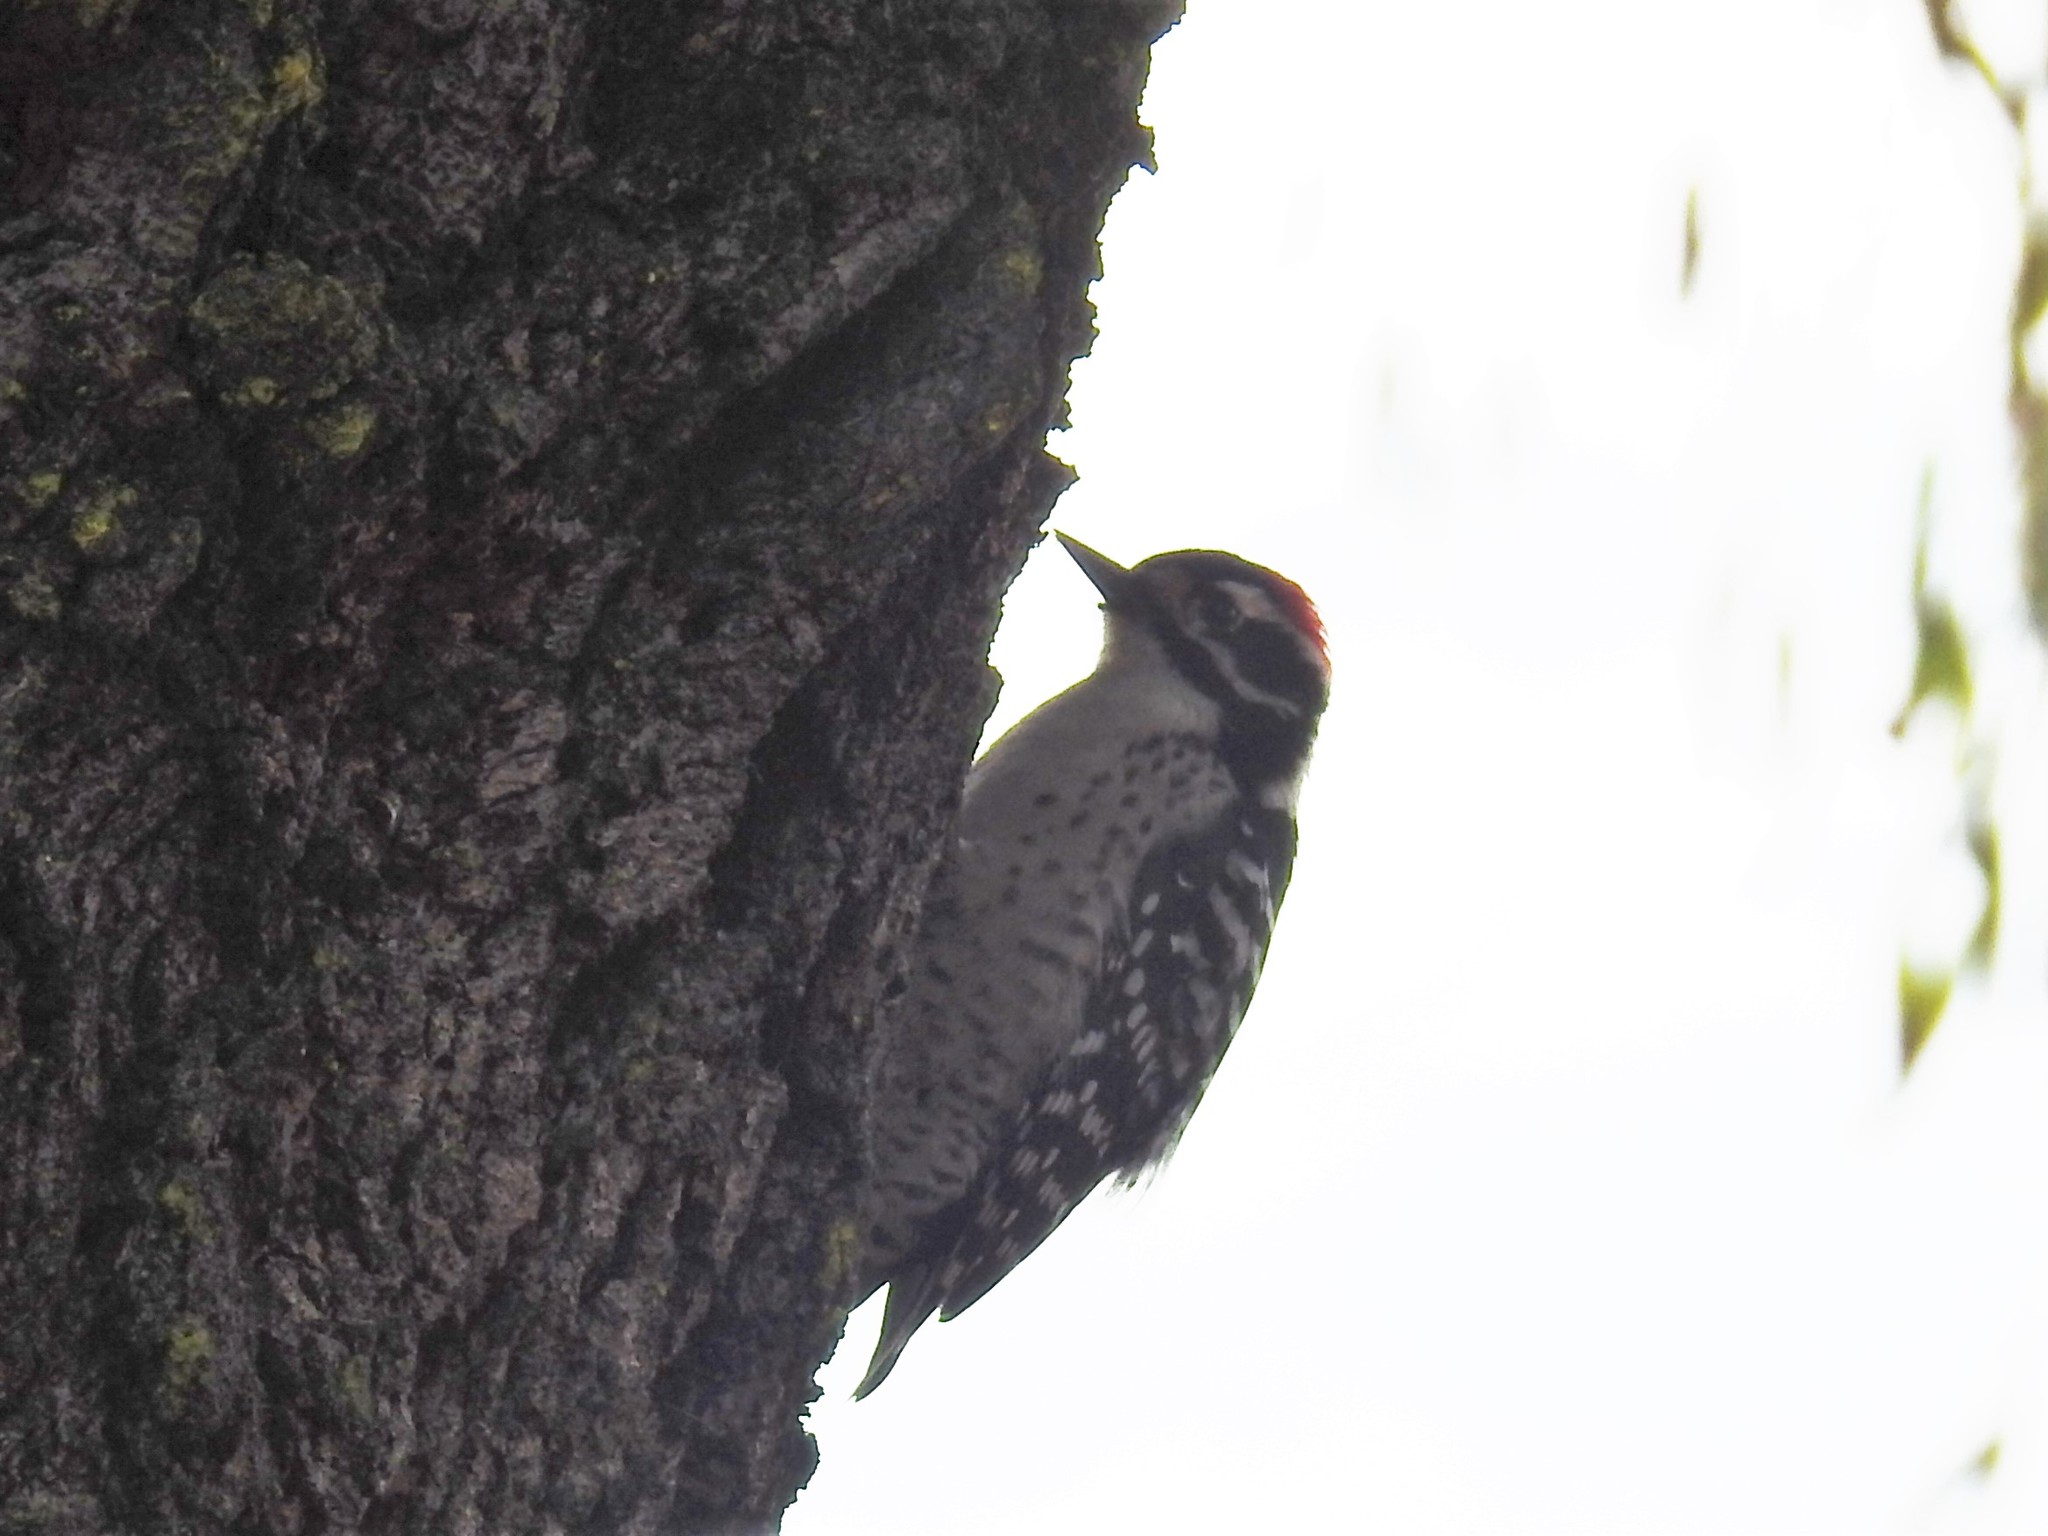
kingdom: Animalia
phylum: Chordata
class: Aves
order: Piciformes
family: Picidae
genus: Dryobates
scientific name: Dryobates nuttallii
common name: Nuttall's woodpecker
